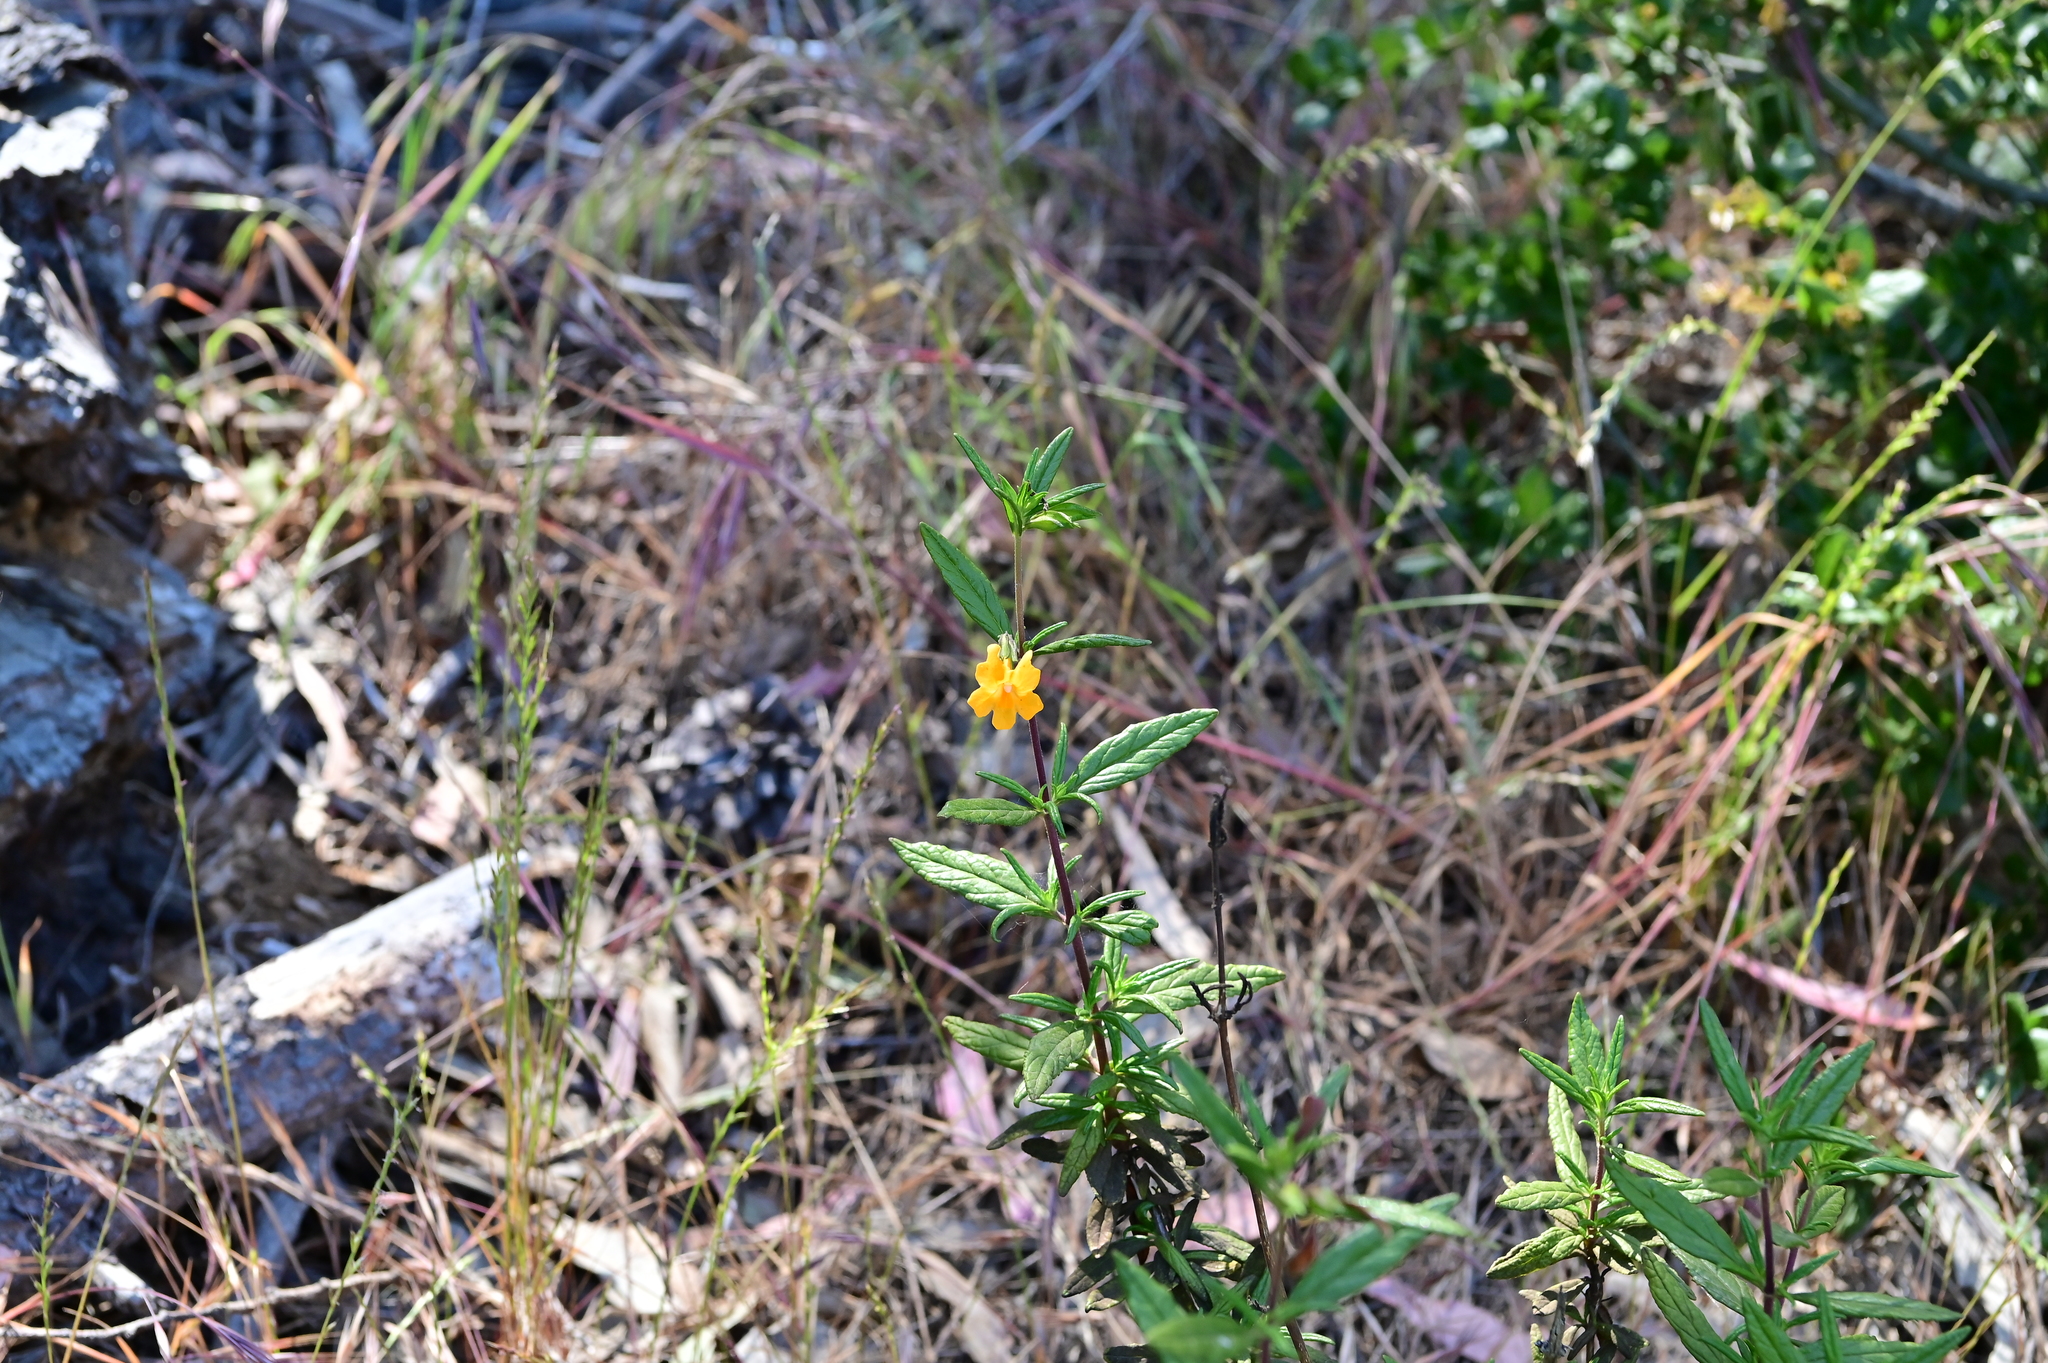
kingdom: Plantae
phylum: Tracheophyta
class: Magnoliopsida
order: Lamiales
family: Phrymaceae
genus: Diplacus
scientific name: Diplacus aurantiacus
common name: Bush monkey-flower
